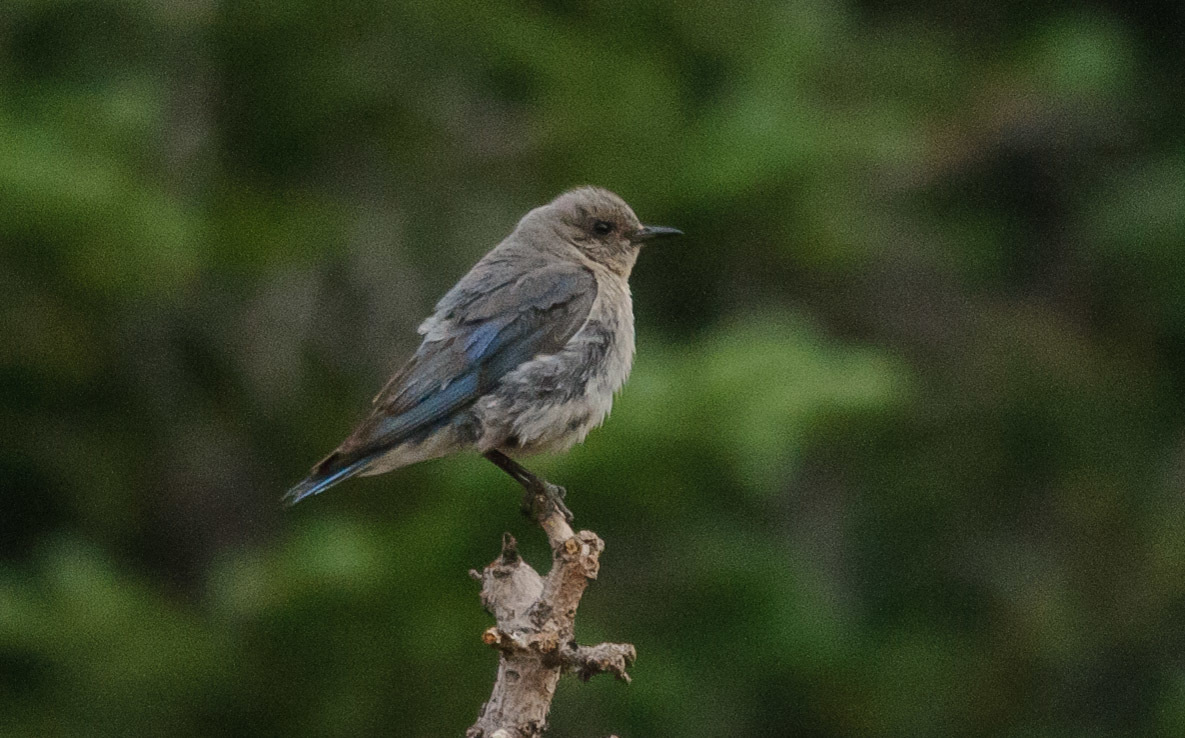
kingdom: Animalia
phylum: Chordata
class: Aves
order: Passeriformes
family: Turdidae
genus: Sialia
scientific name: Sialia currucoides
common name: Mountain bluebird
